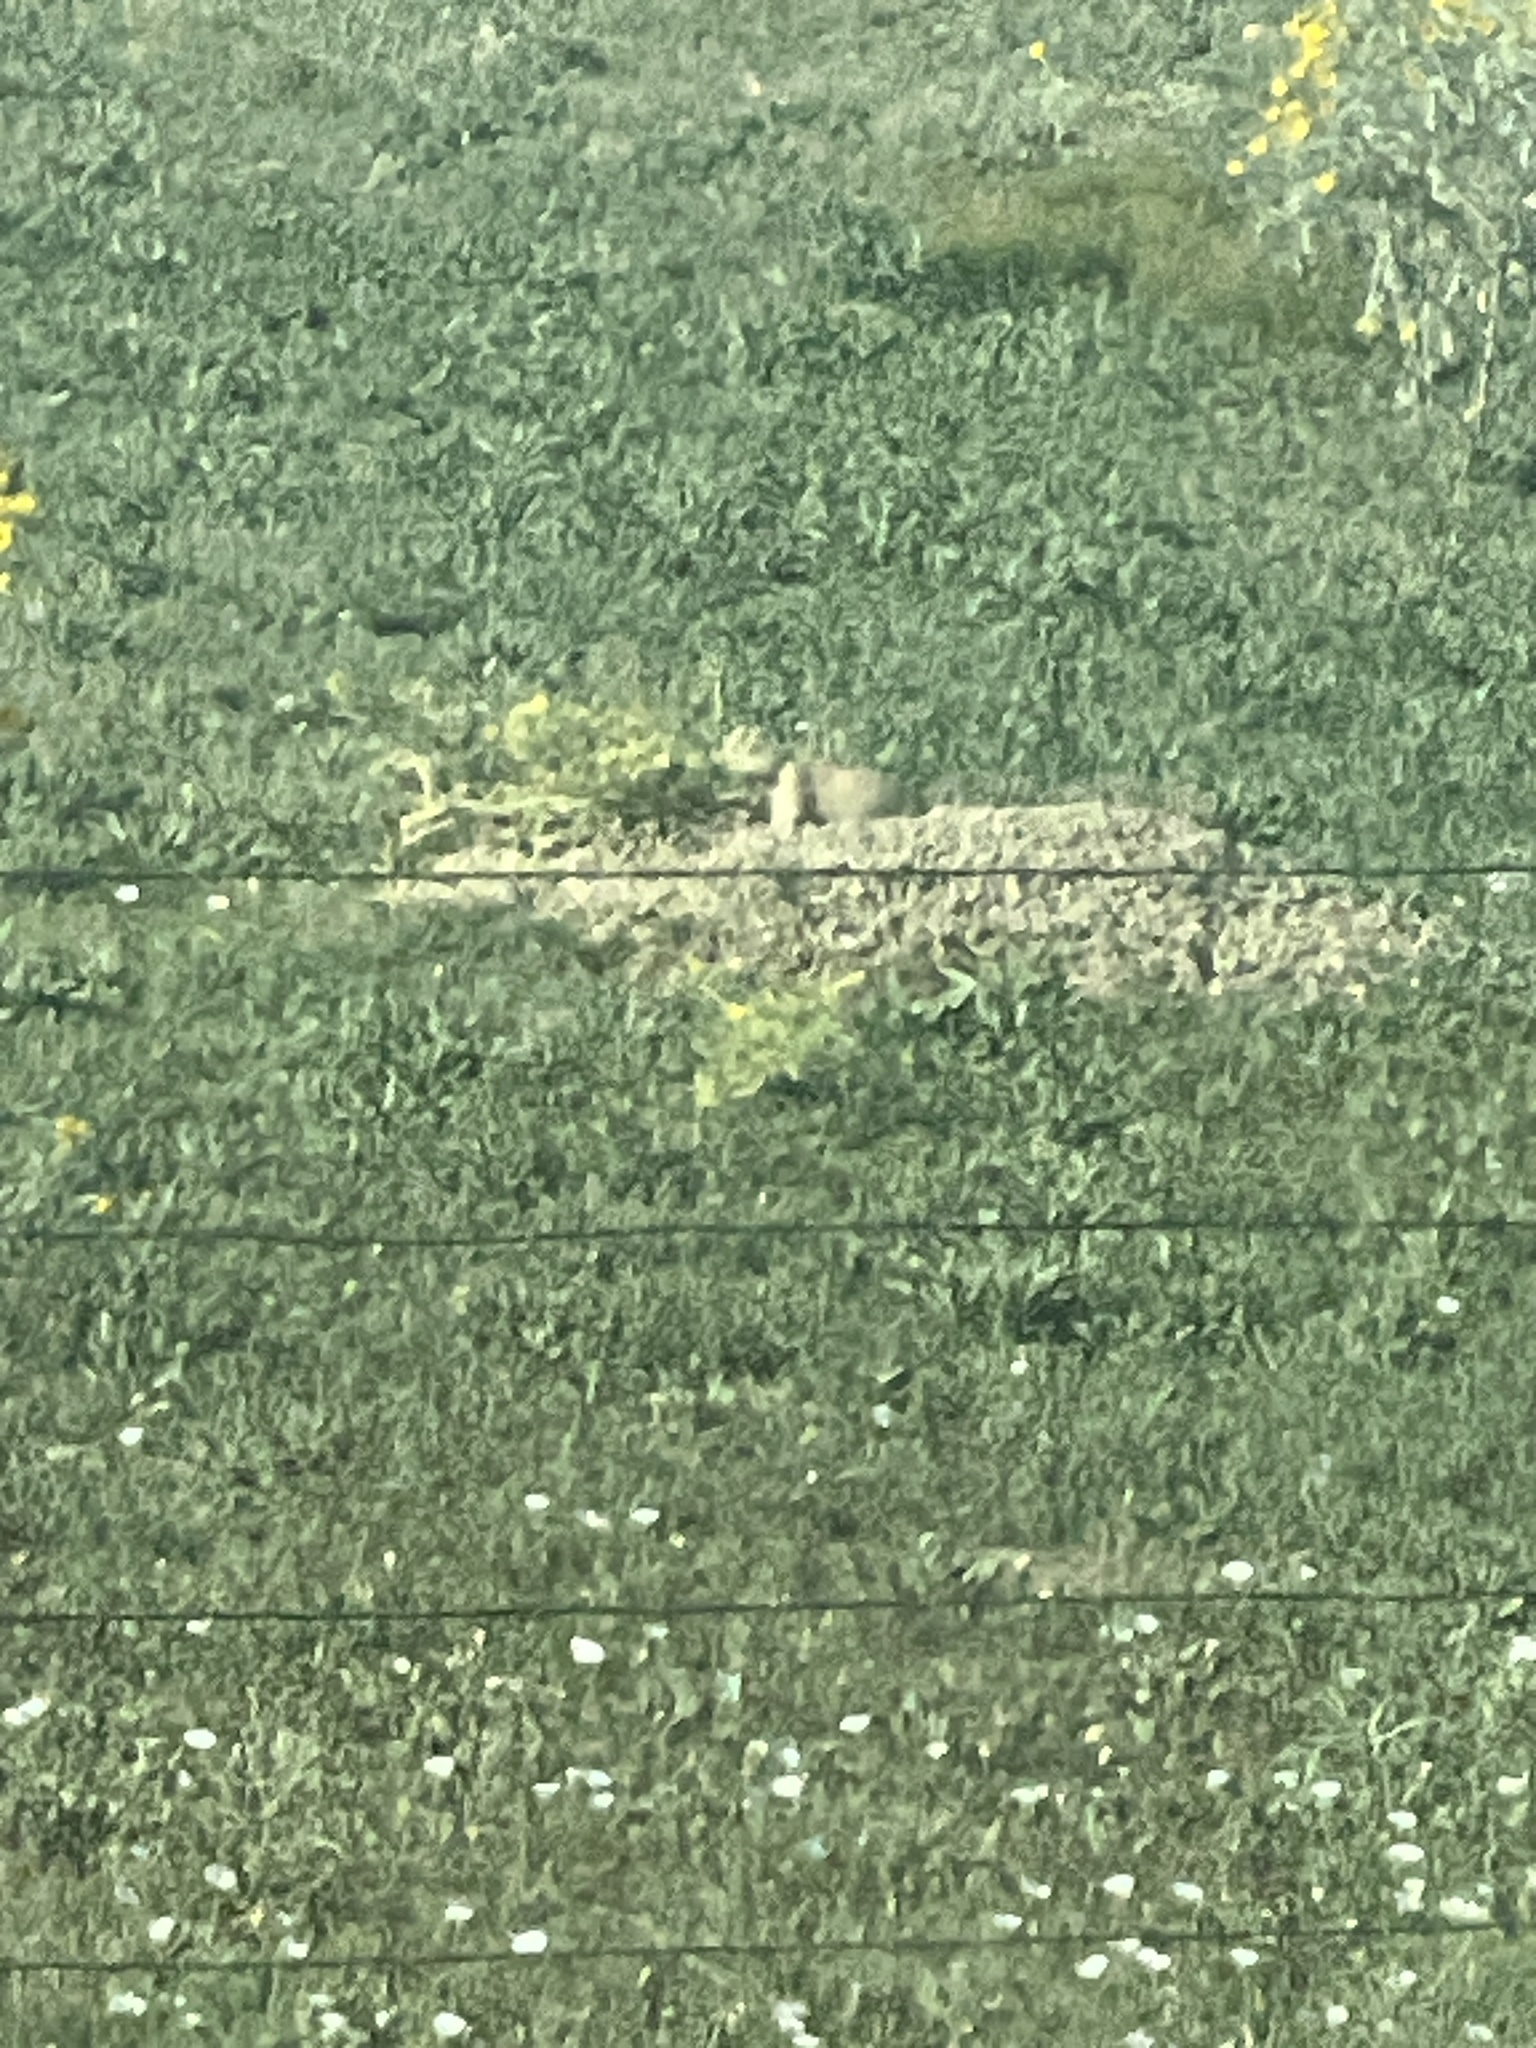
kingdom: Animalia
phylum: Chordata
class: Mammalia
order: Rodentia
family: Sciuridae
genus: Cynomys
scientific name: Cynomys ludovicianus
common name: Black-tailed prairie dog
